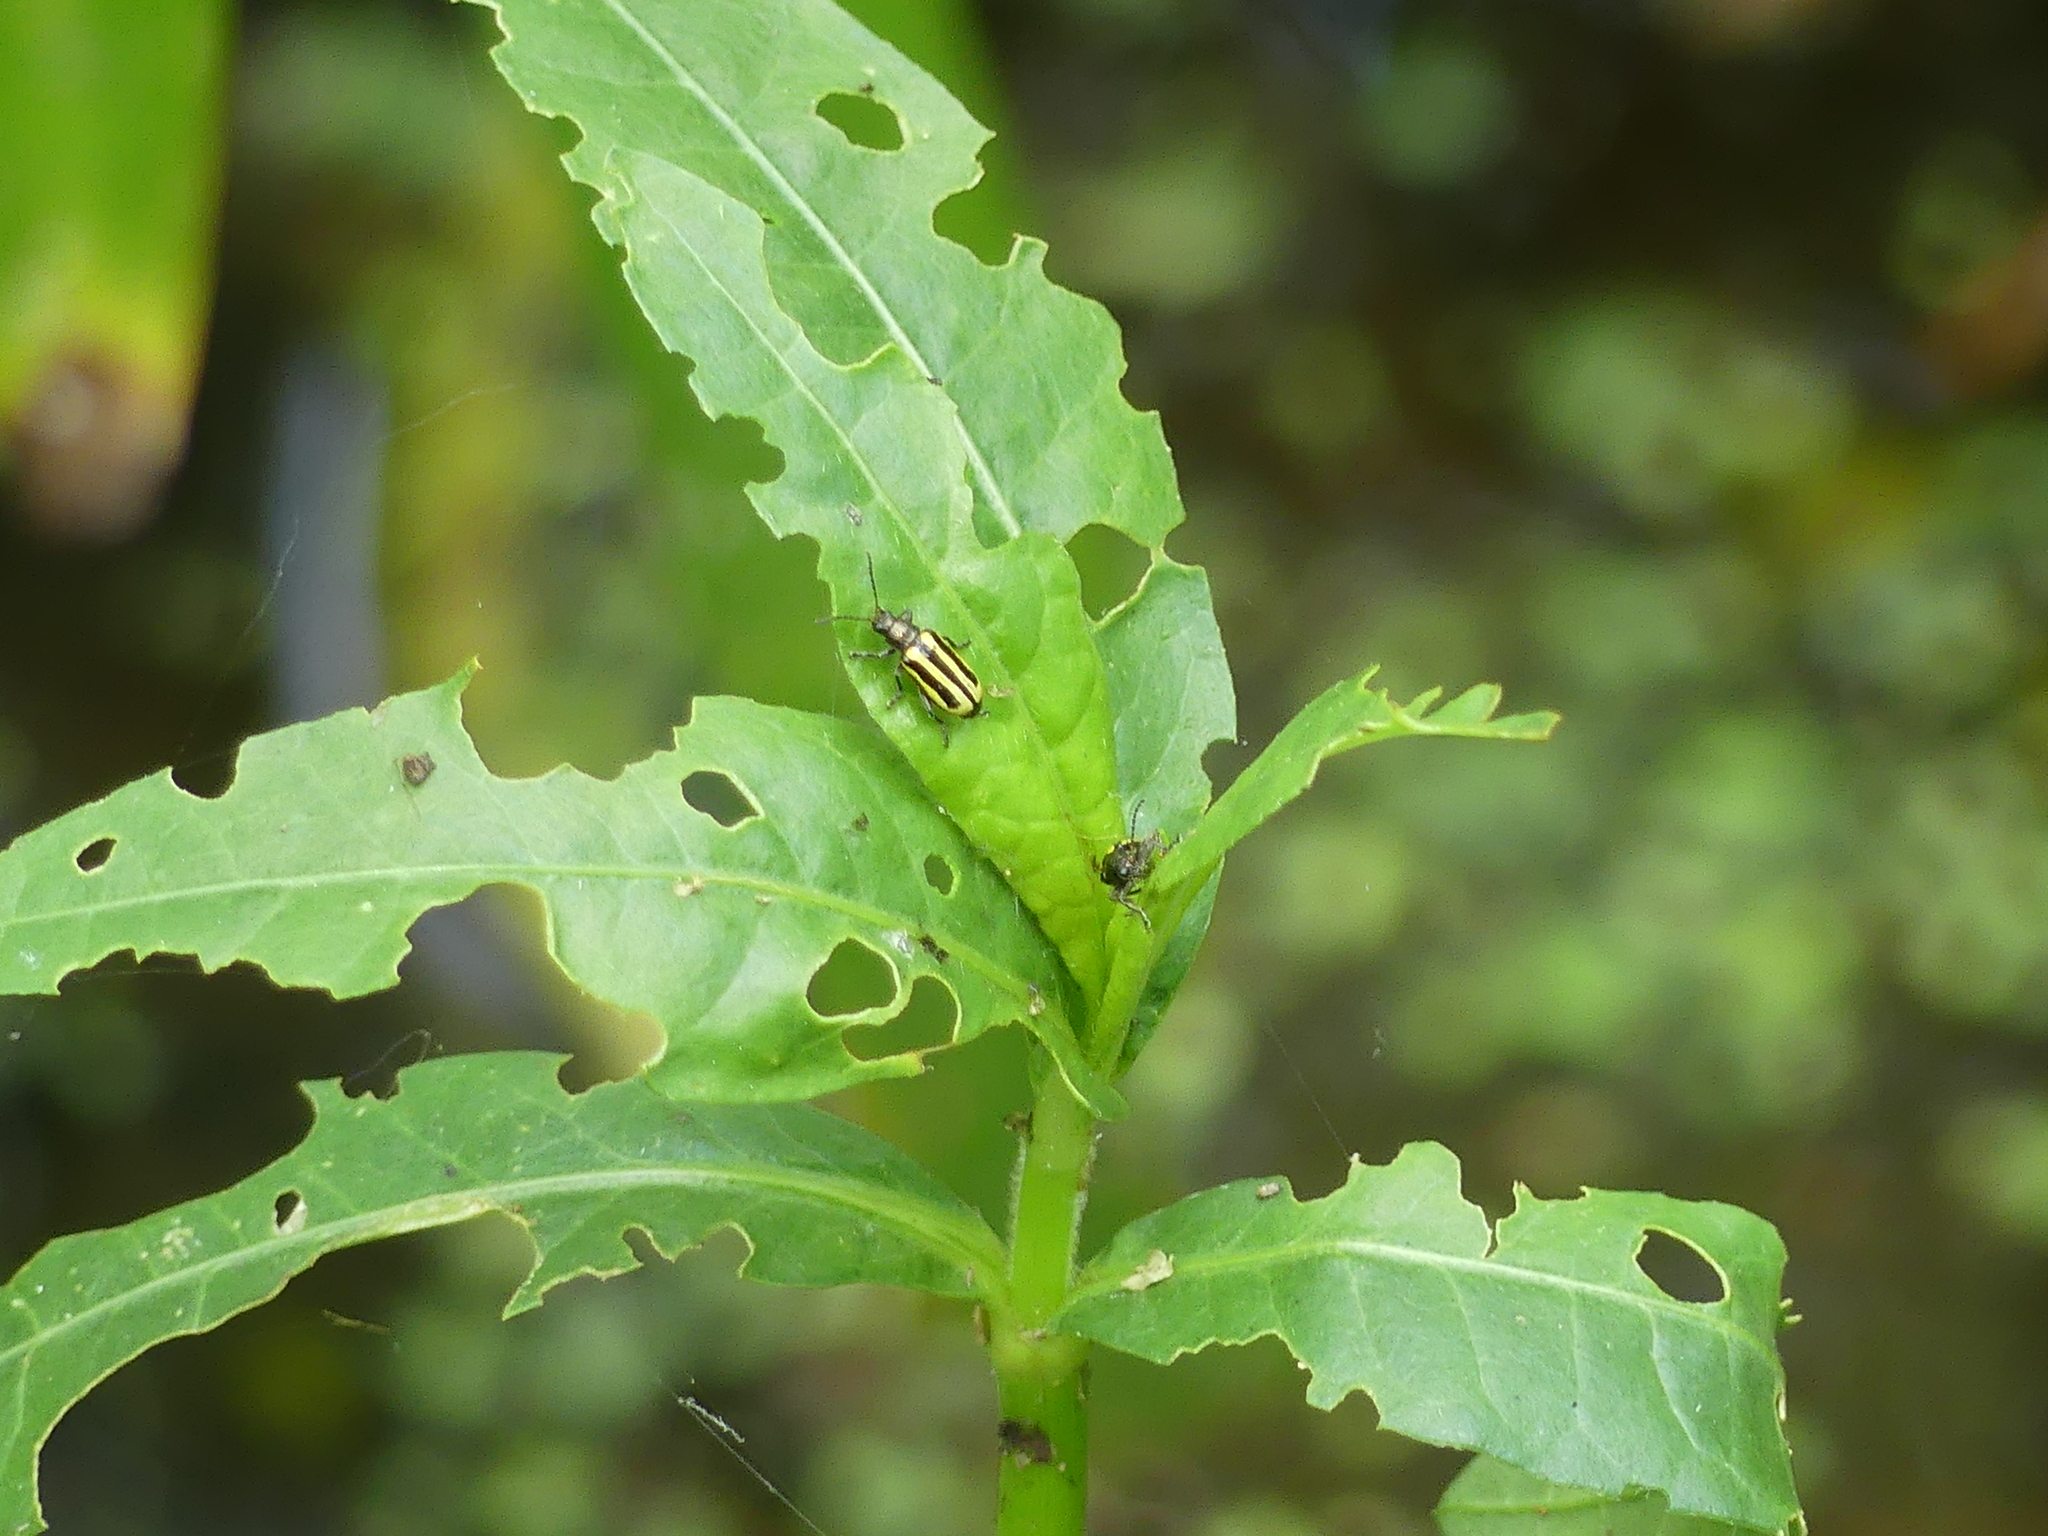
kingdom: Animalia
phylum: Arthropoda
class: Insecta
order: Coleoptera
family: Chrysomelidae
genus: Agasicles
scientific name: Agasicles hygrophila
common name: Alligatorweed flea beetle
